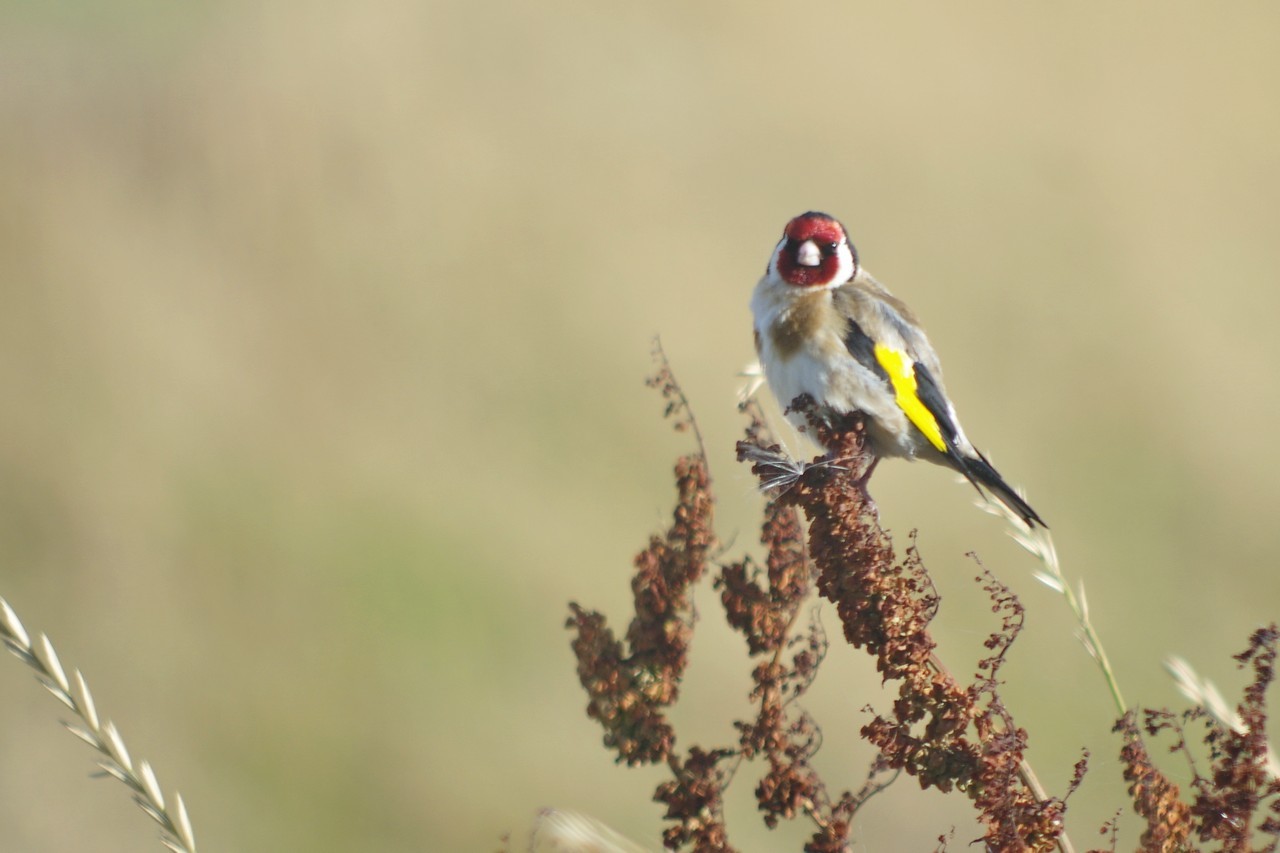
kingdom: Animalia
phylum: Chordata
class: Aves
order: Passeriformes
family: Fringillidae
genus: Carduelis
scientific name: Carduelis carduelis
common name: European goldfinch
